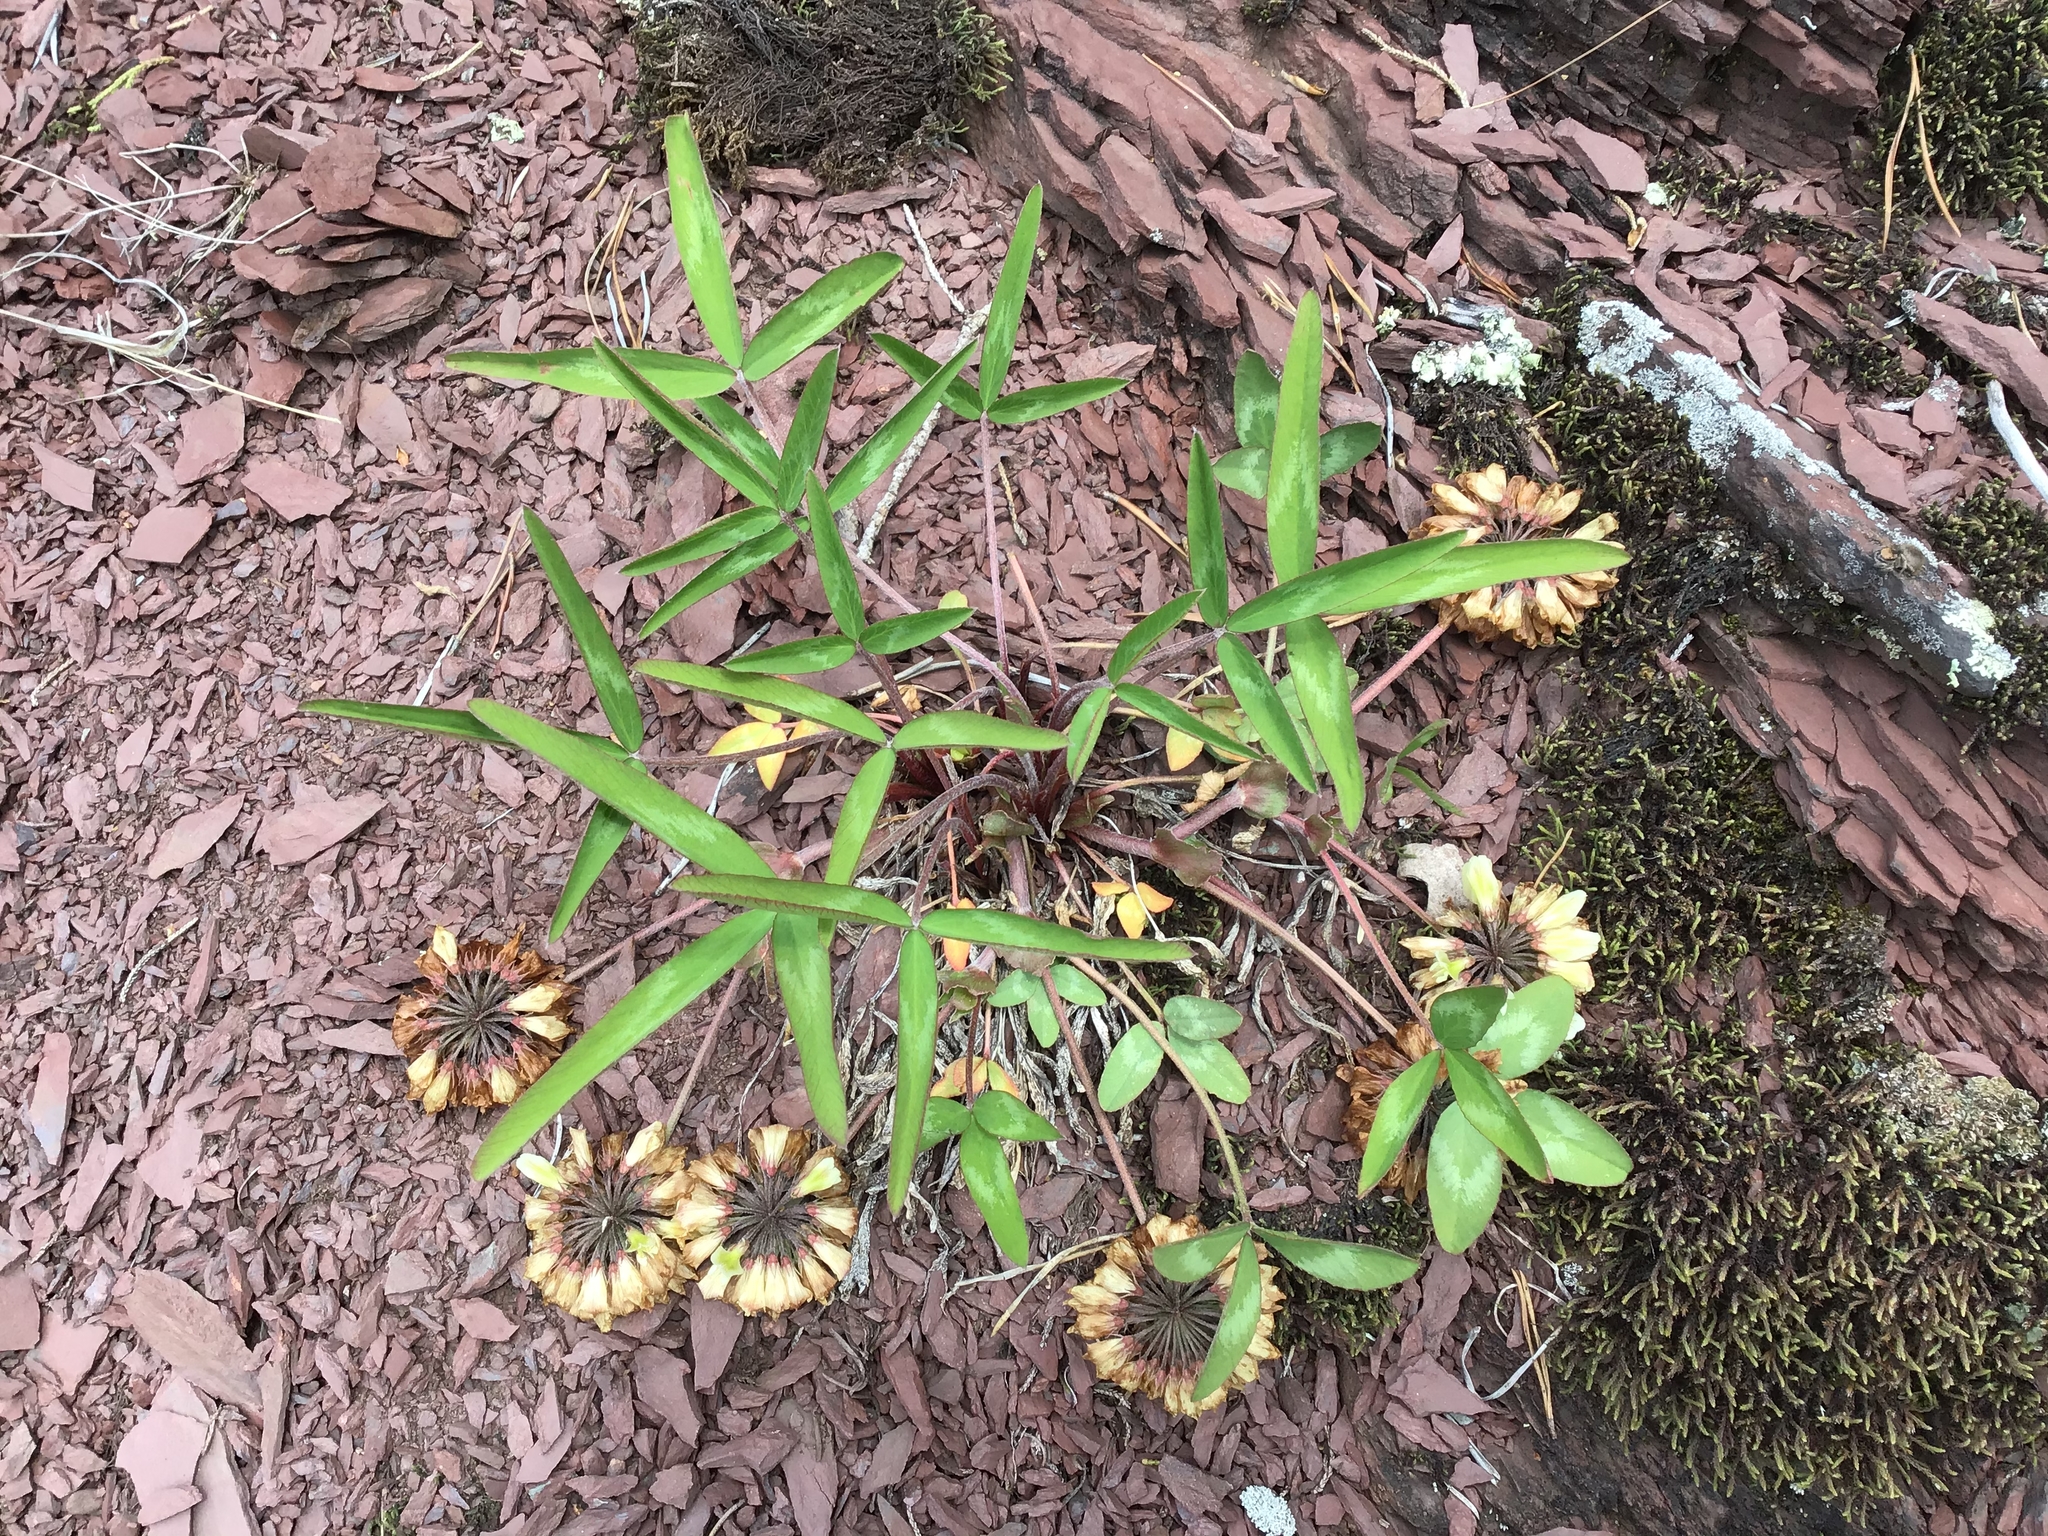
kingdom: Plantae
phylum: Tracheophyta
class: Magnoliopsida
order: Fabales
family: Fabaceae
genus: Trifolium
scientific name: Trifolium virginicum
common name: Kate's mountain clover
